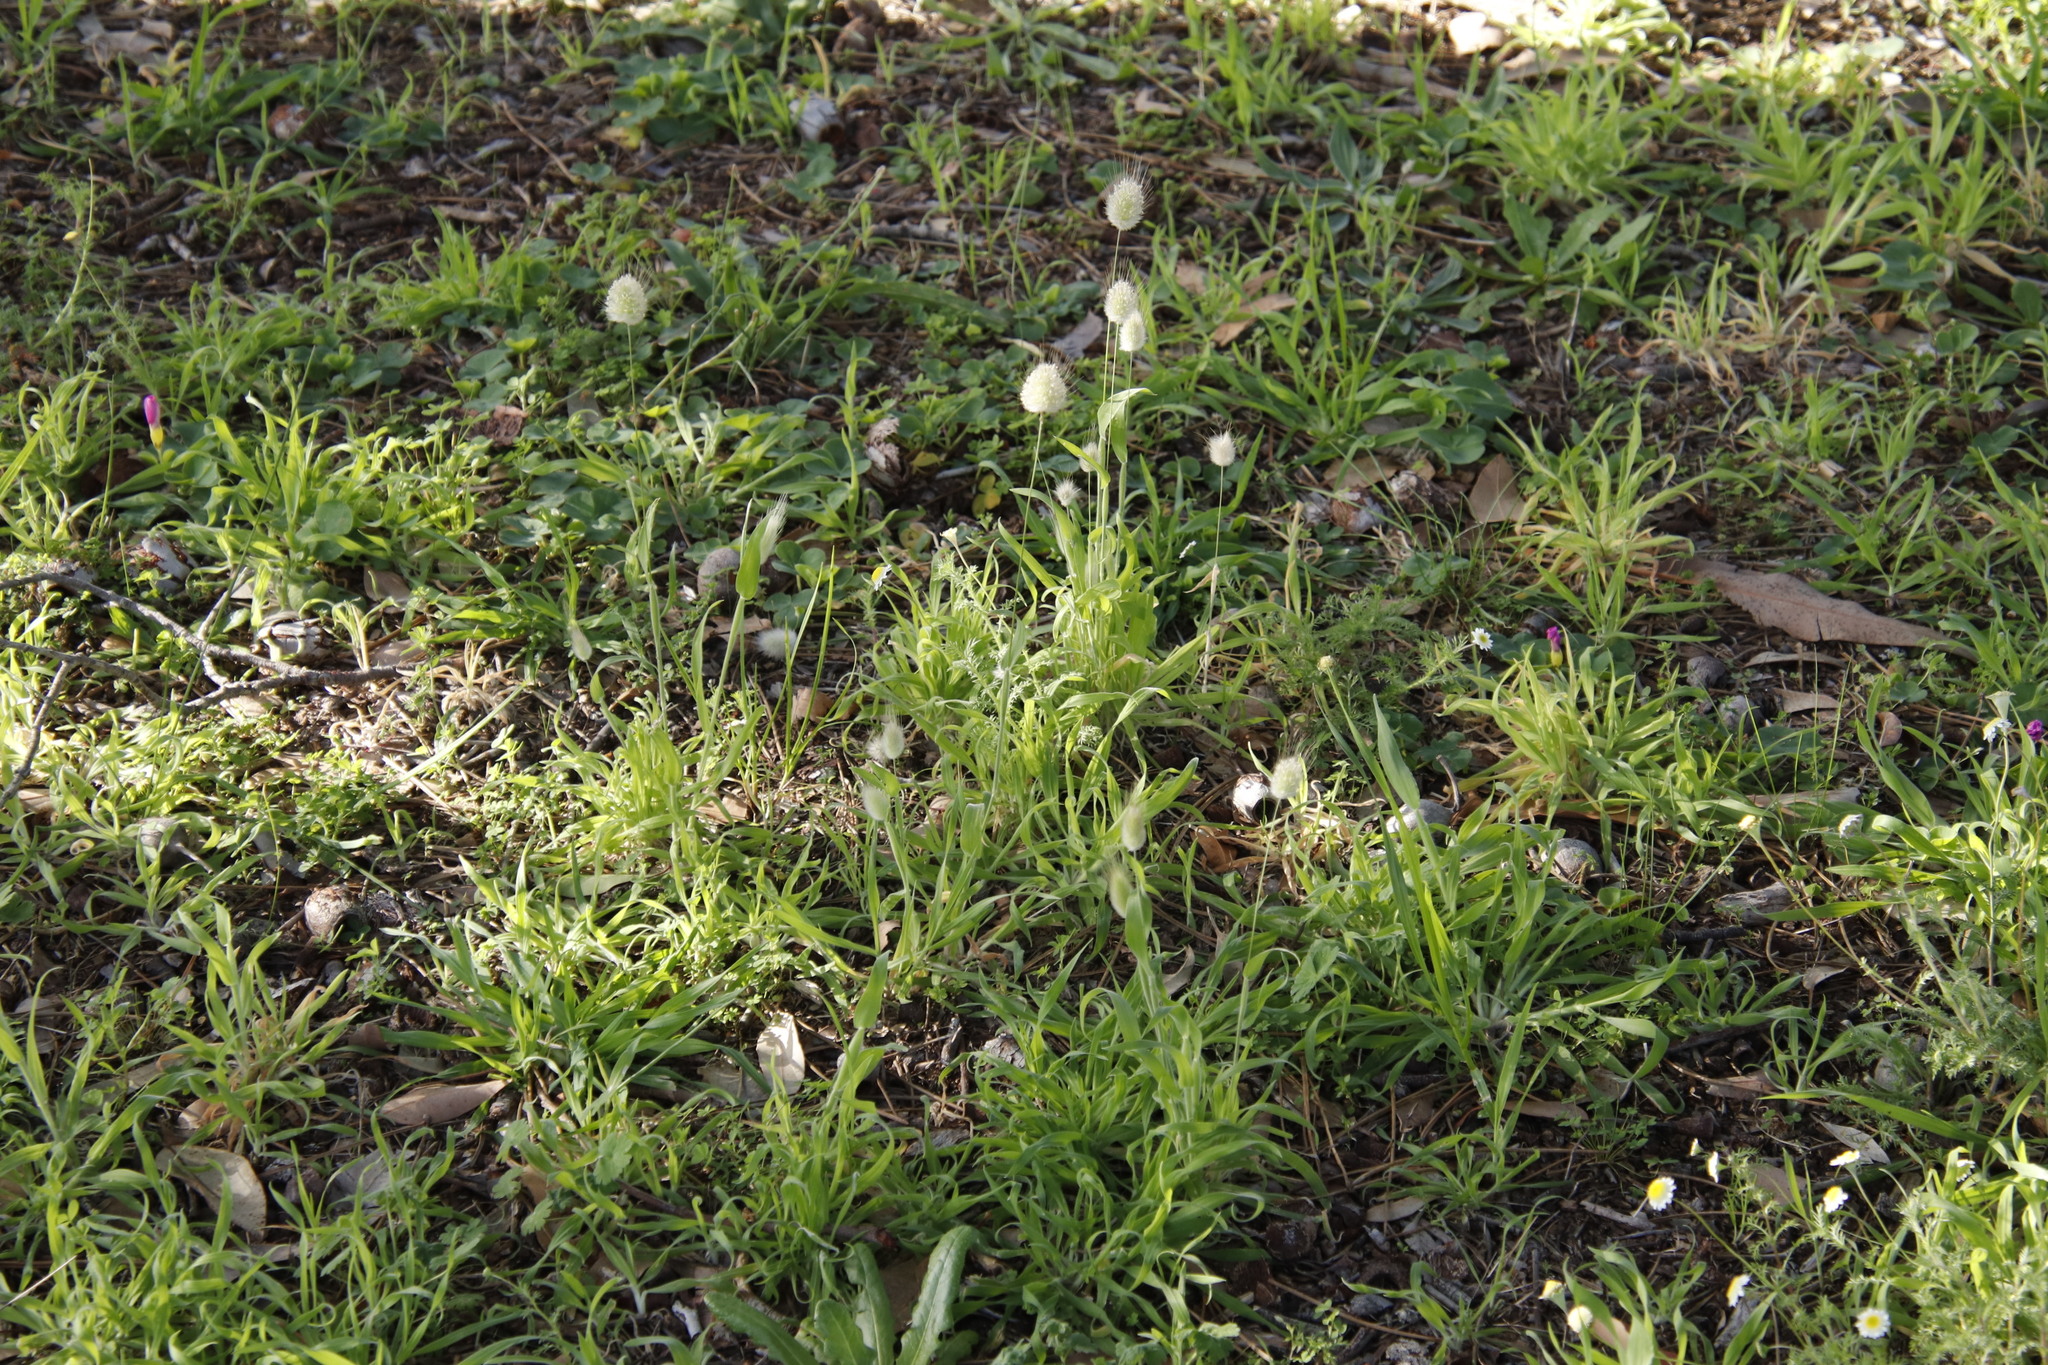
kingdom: Plantae
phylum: Tracheophyta
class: Liliopsida
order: Poales
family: Poaceae
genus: Lagurus
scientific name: Lagurus ovatus
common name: Hare's-tail
